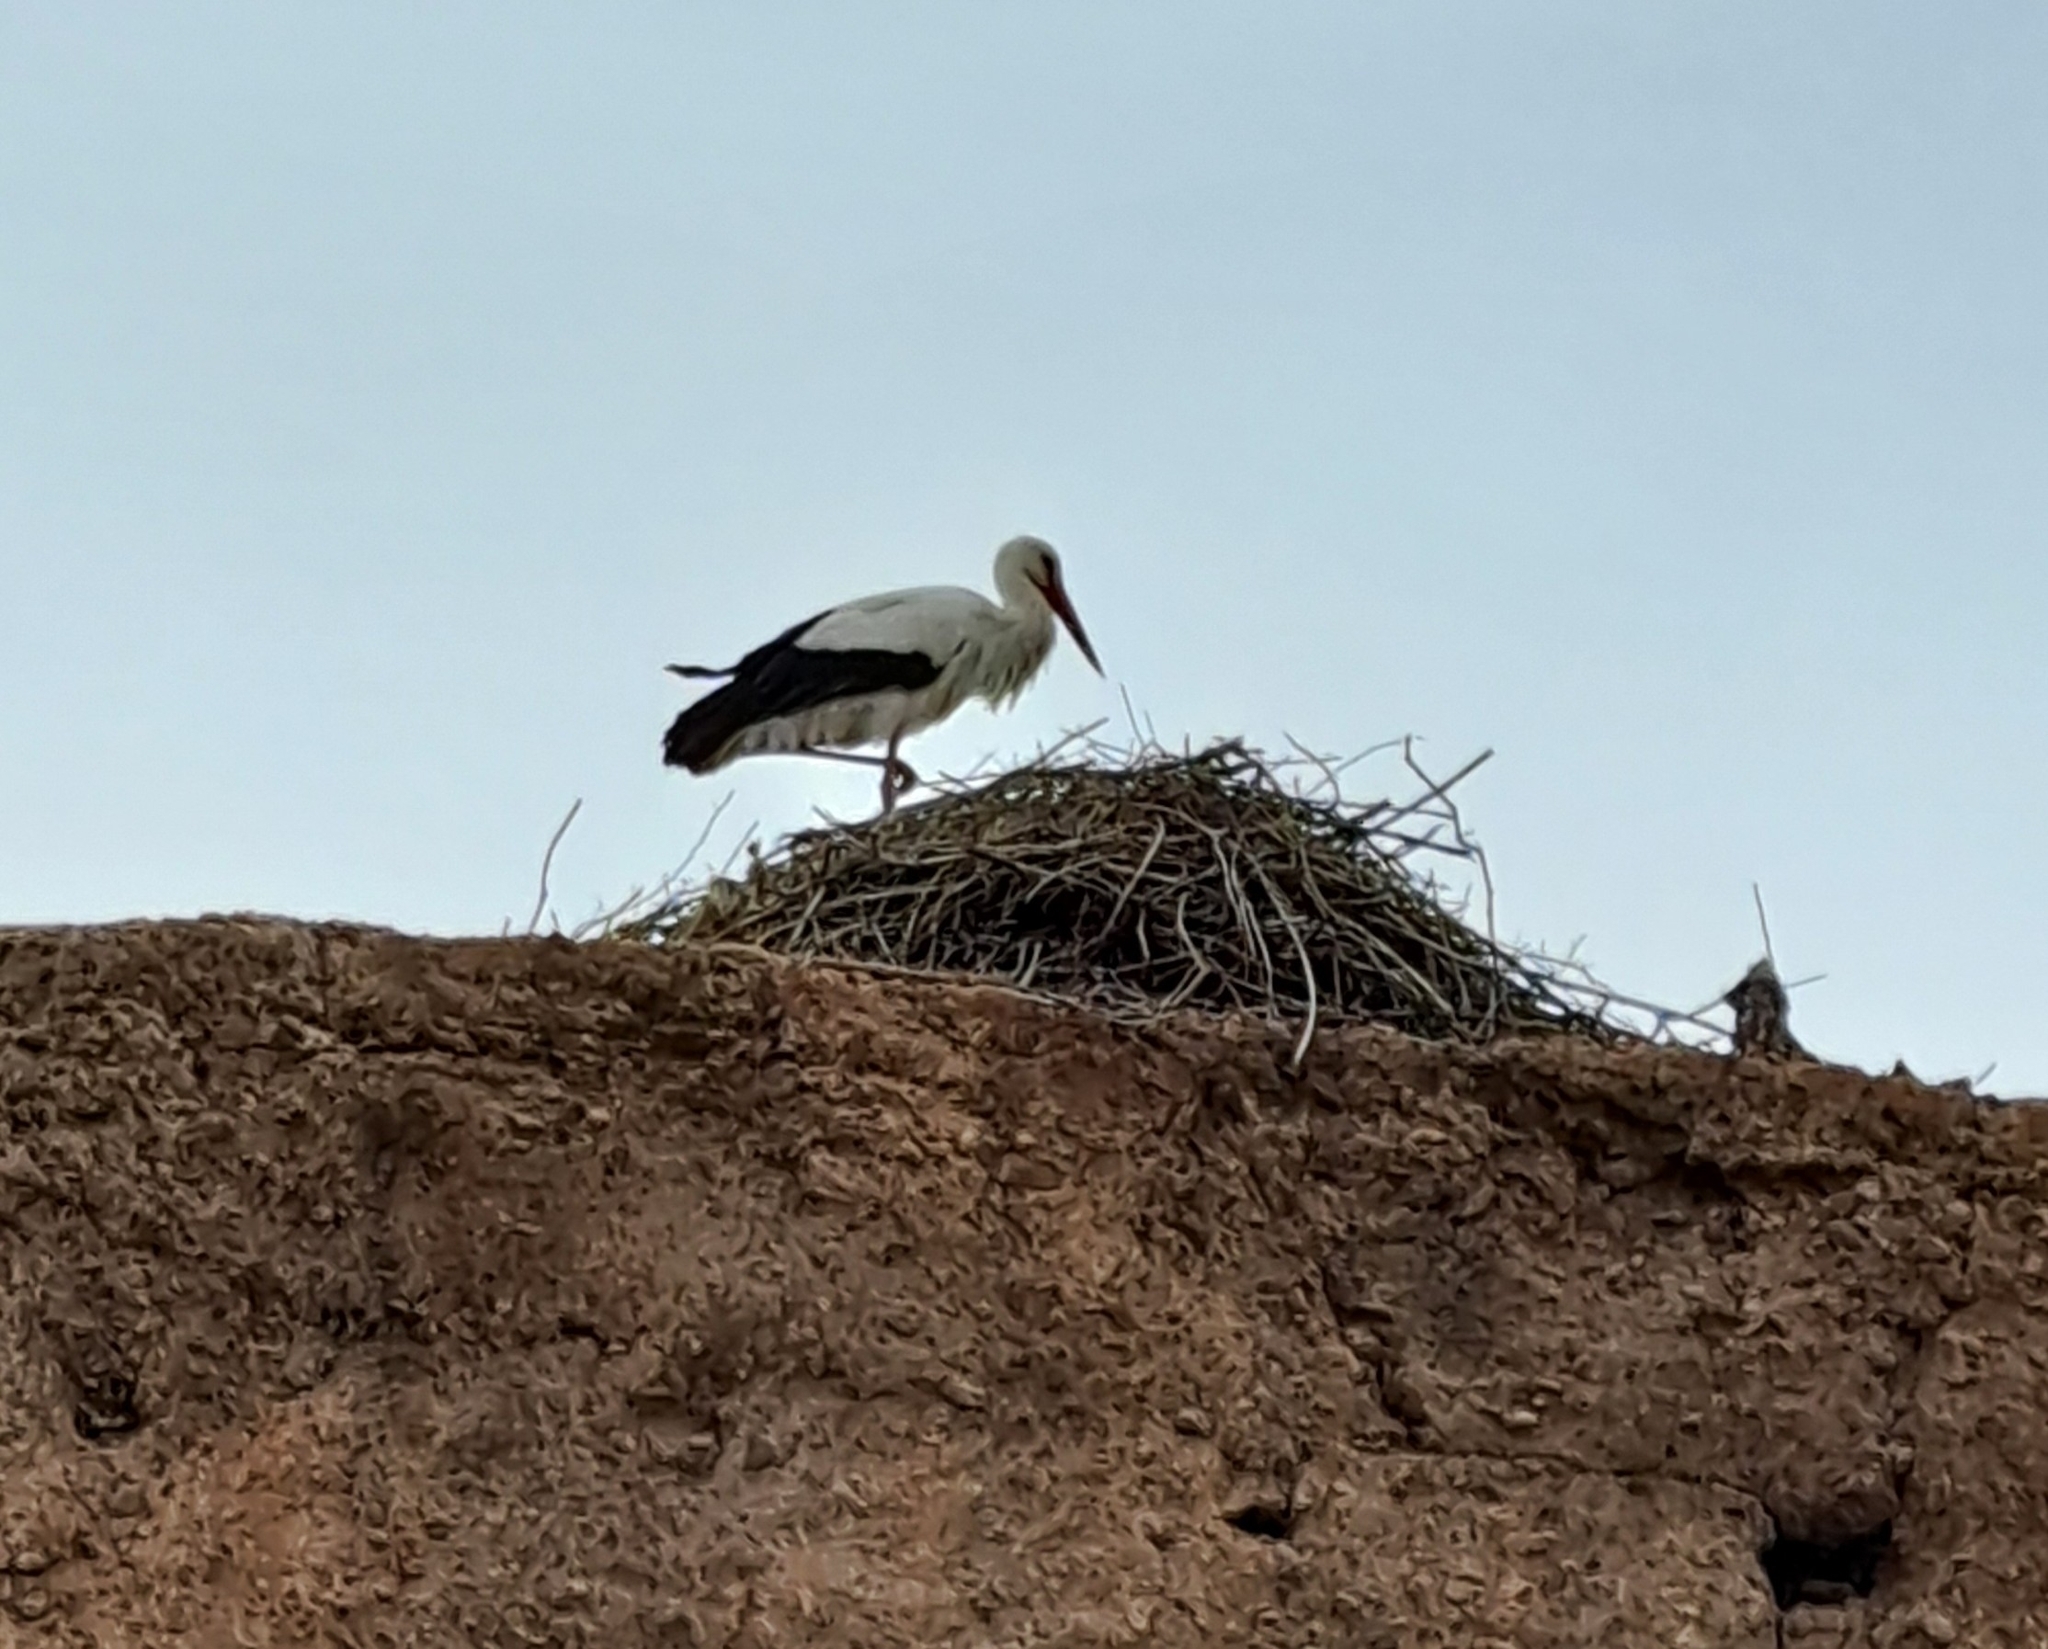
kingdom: Animalia
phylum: Chordata
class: Aves
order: Ciconiiformes
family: Ciconiidae
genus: Ciconia
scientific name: Ciconia ciconia
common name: White stork
